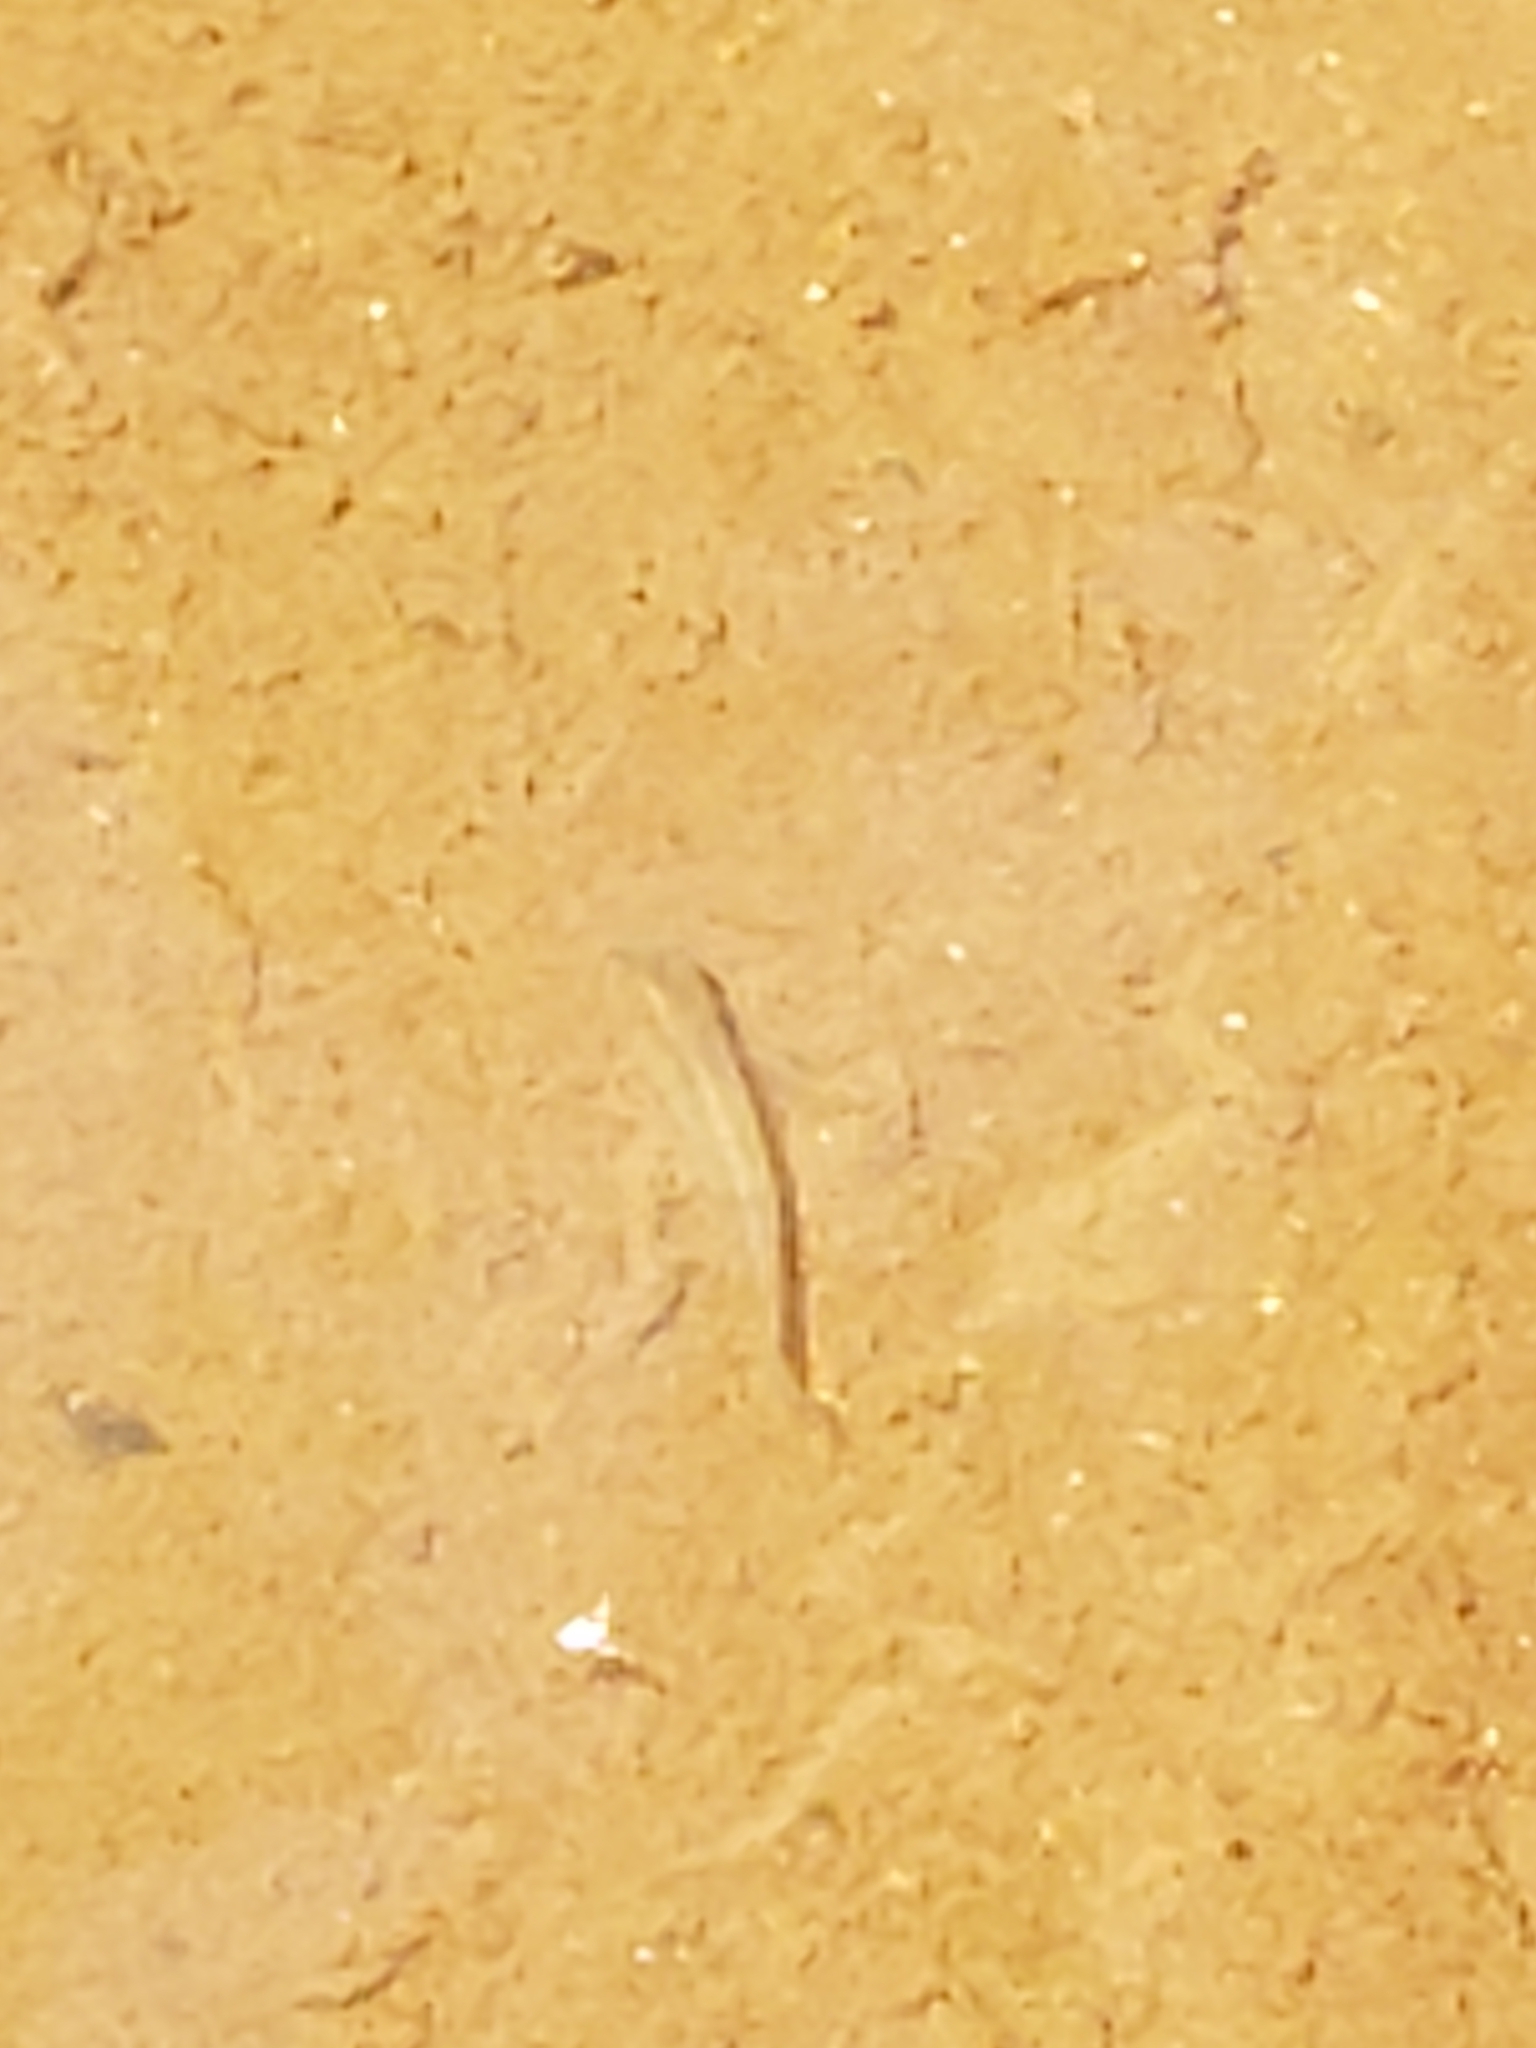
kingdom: Animalia
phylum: Chordata
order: Cyprinodontiformes
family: Poeciliidae
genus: Gambusia
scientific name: Gambusia holbrooki
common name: Eastern mosquitofish
